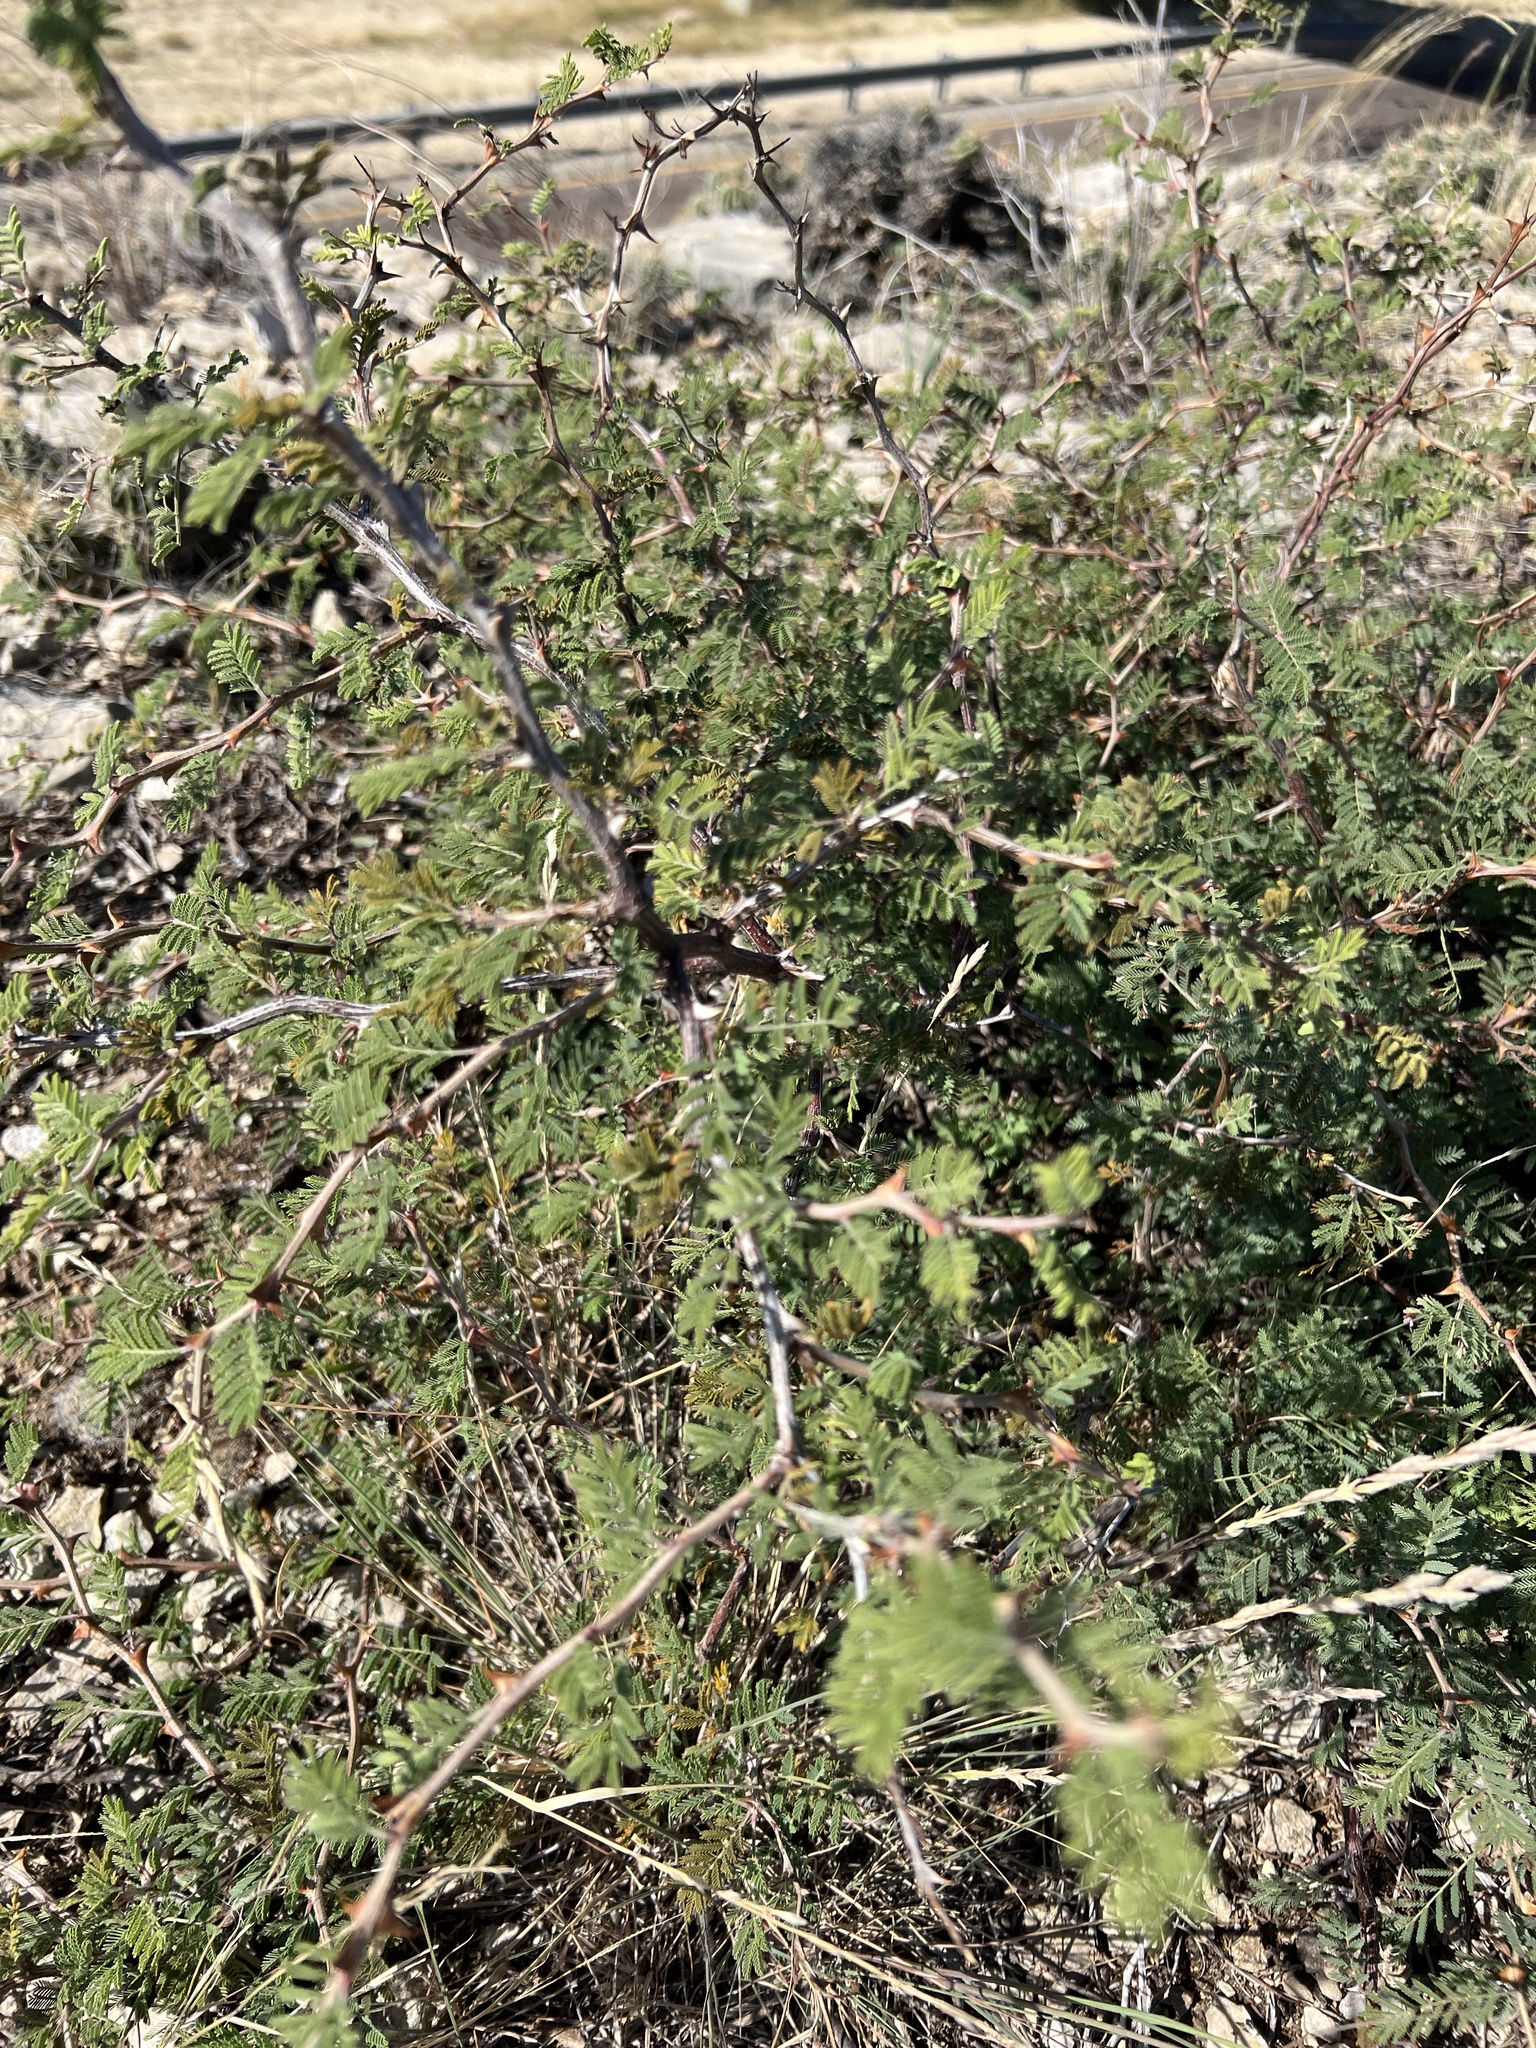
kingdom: Plantae
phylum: Tracheophyta
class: Magnoliopsida
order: Fabales
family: Fabaceae
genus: Mimosa
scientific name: Mimosa aculeaticarpa
